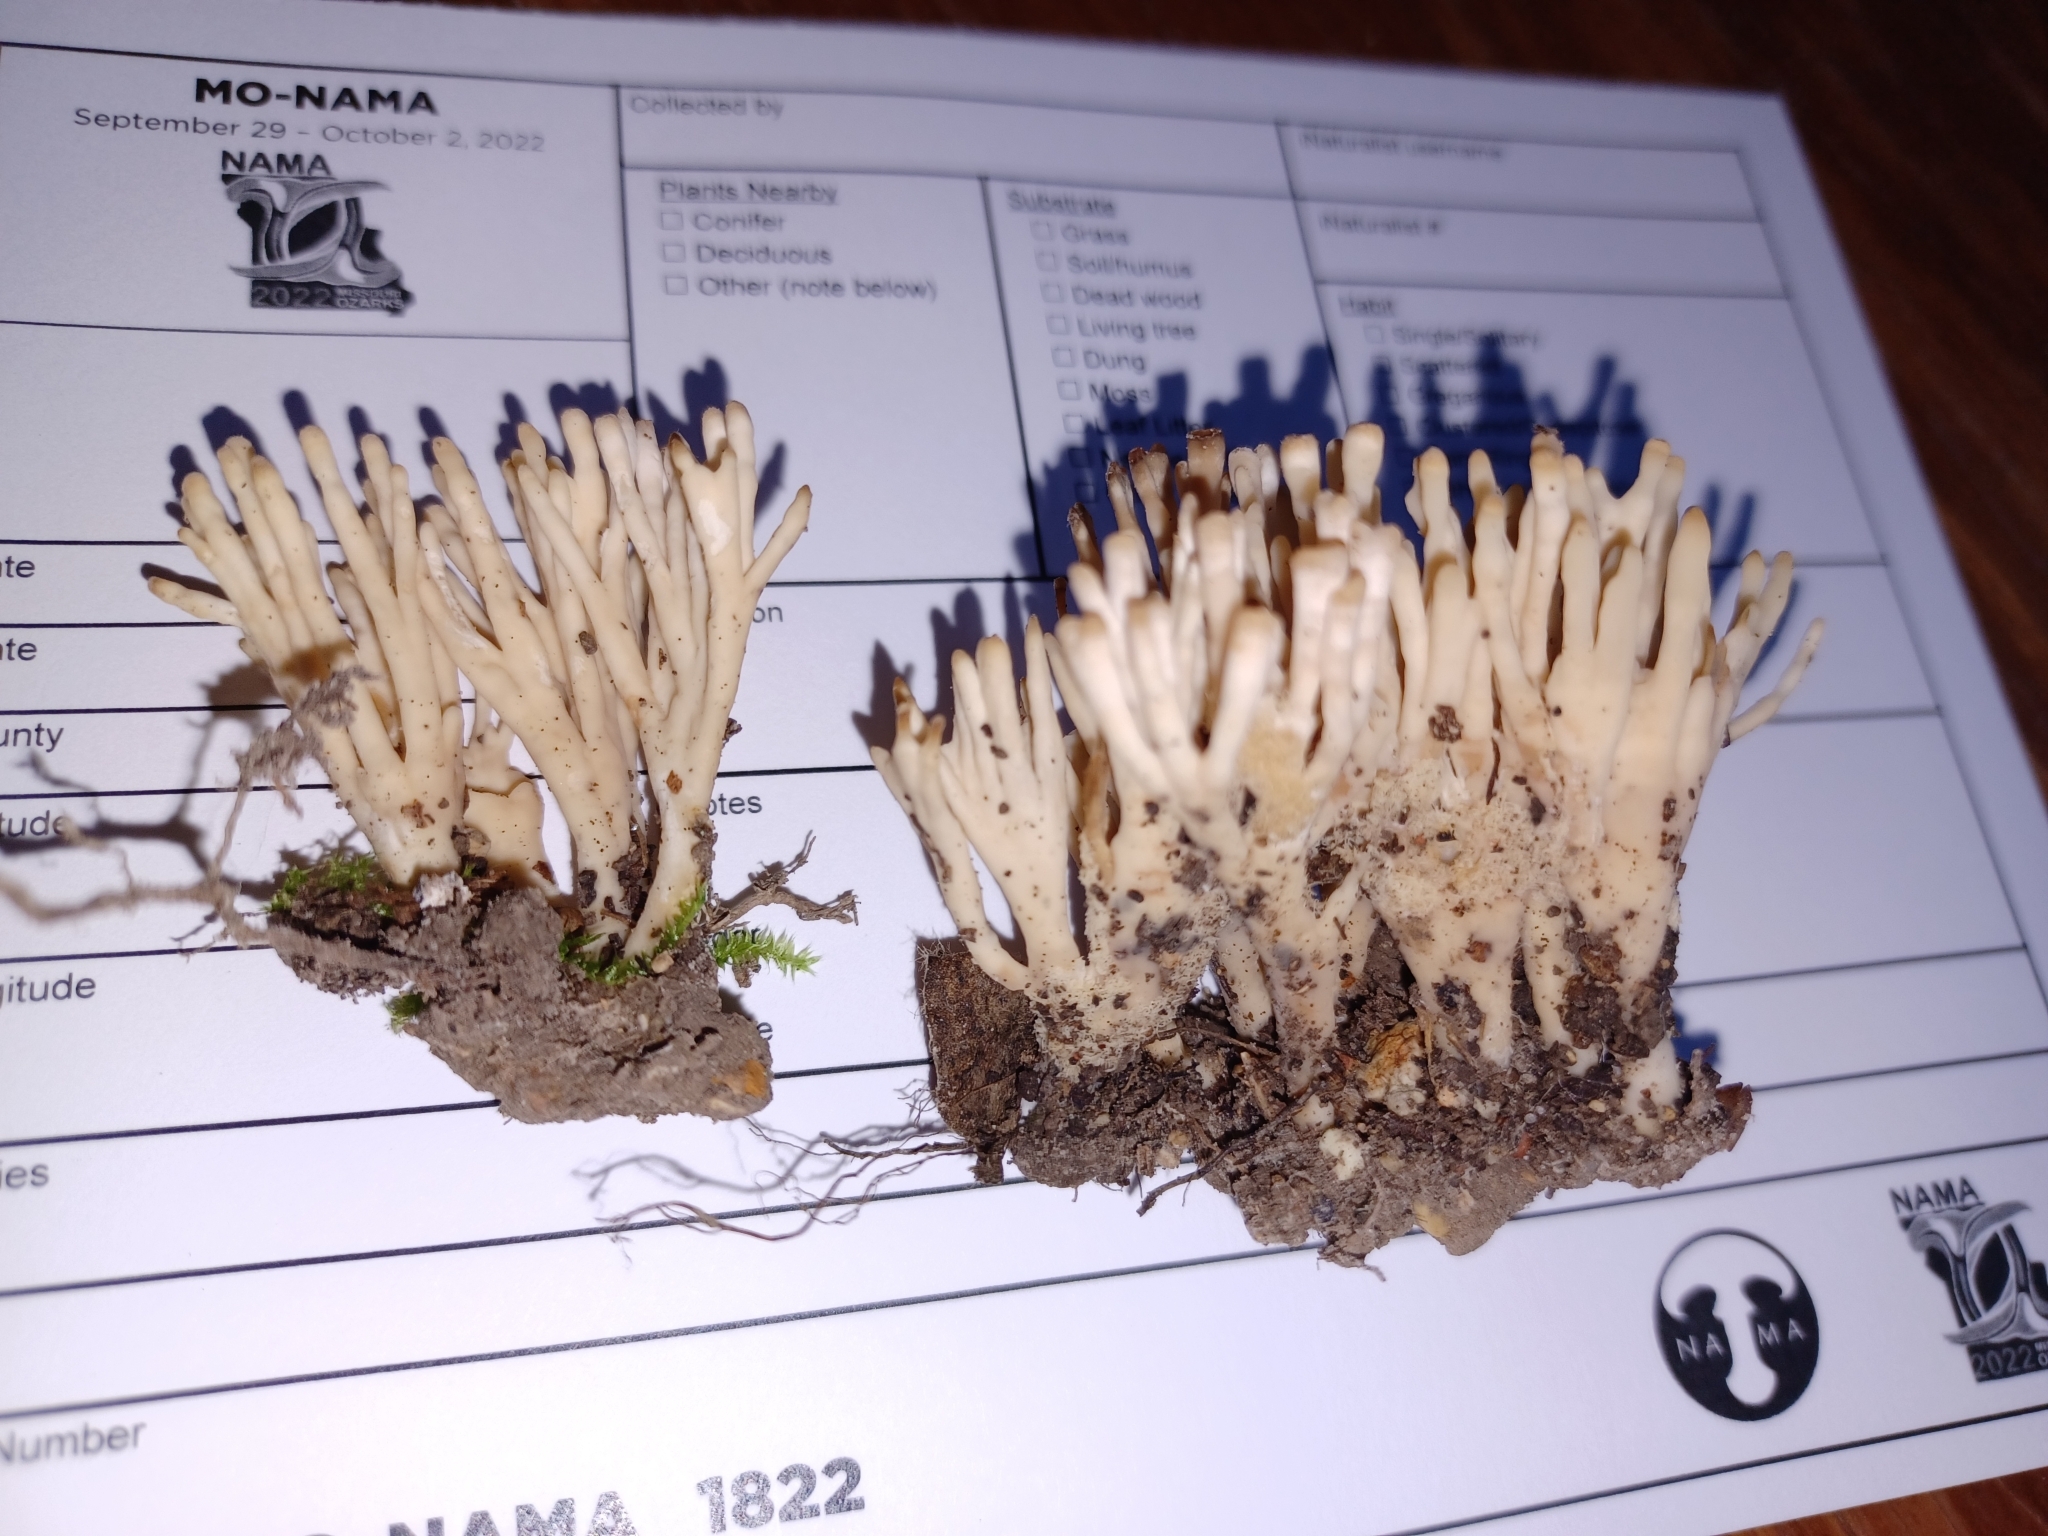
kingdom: Fungi
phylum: Basidiomycota
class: Agaricomycetes
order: Sebacinales
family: Sebacinaceae
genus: Sebacina
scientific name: Sebacina schweinitzii
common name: Jellied false coral fungus
